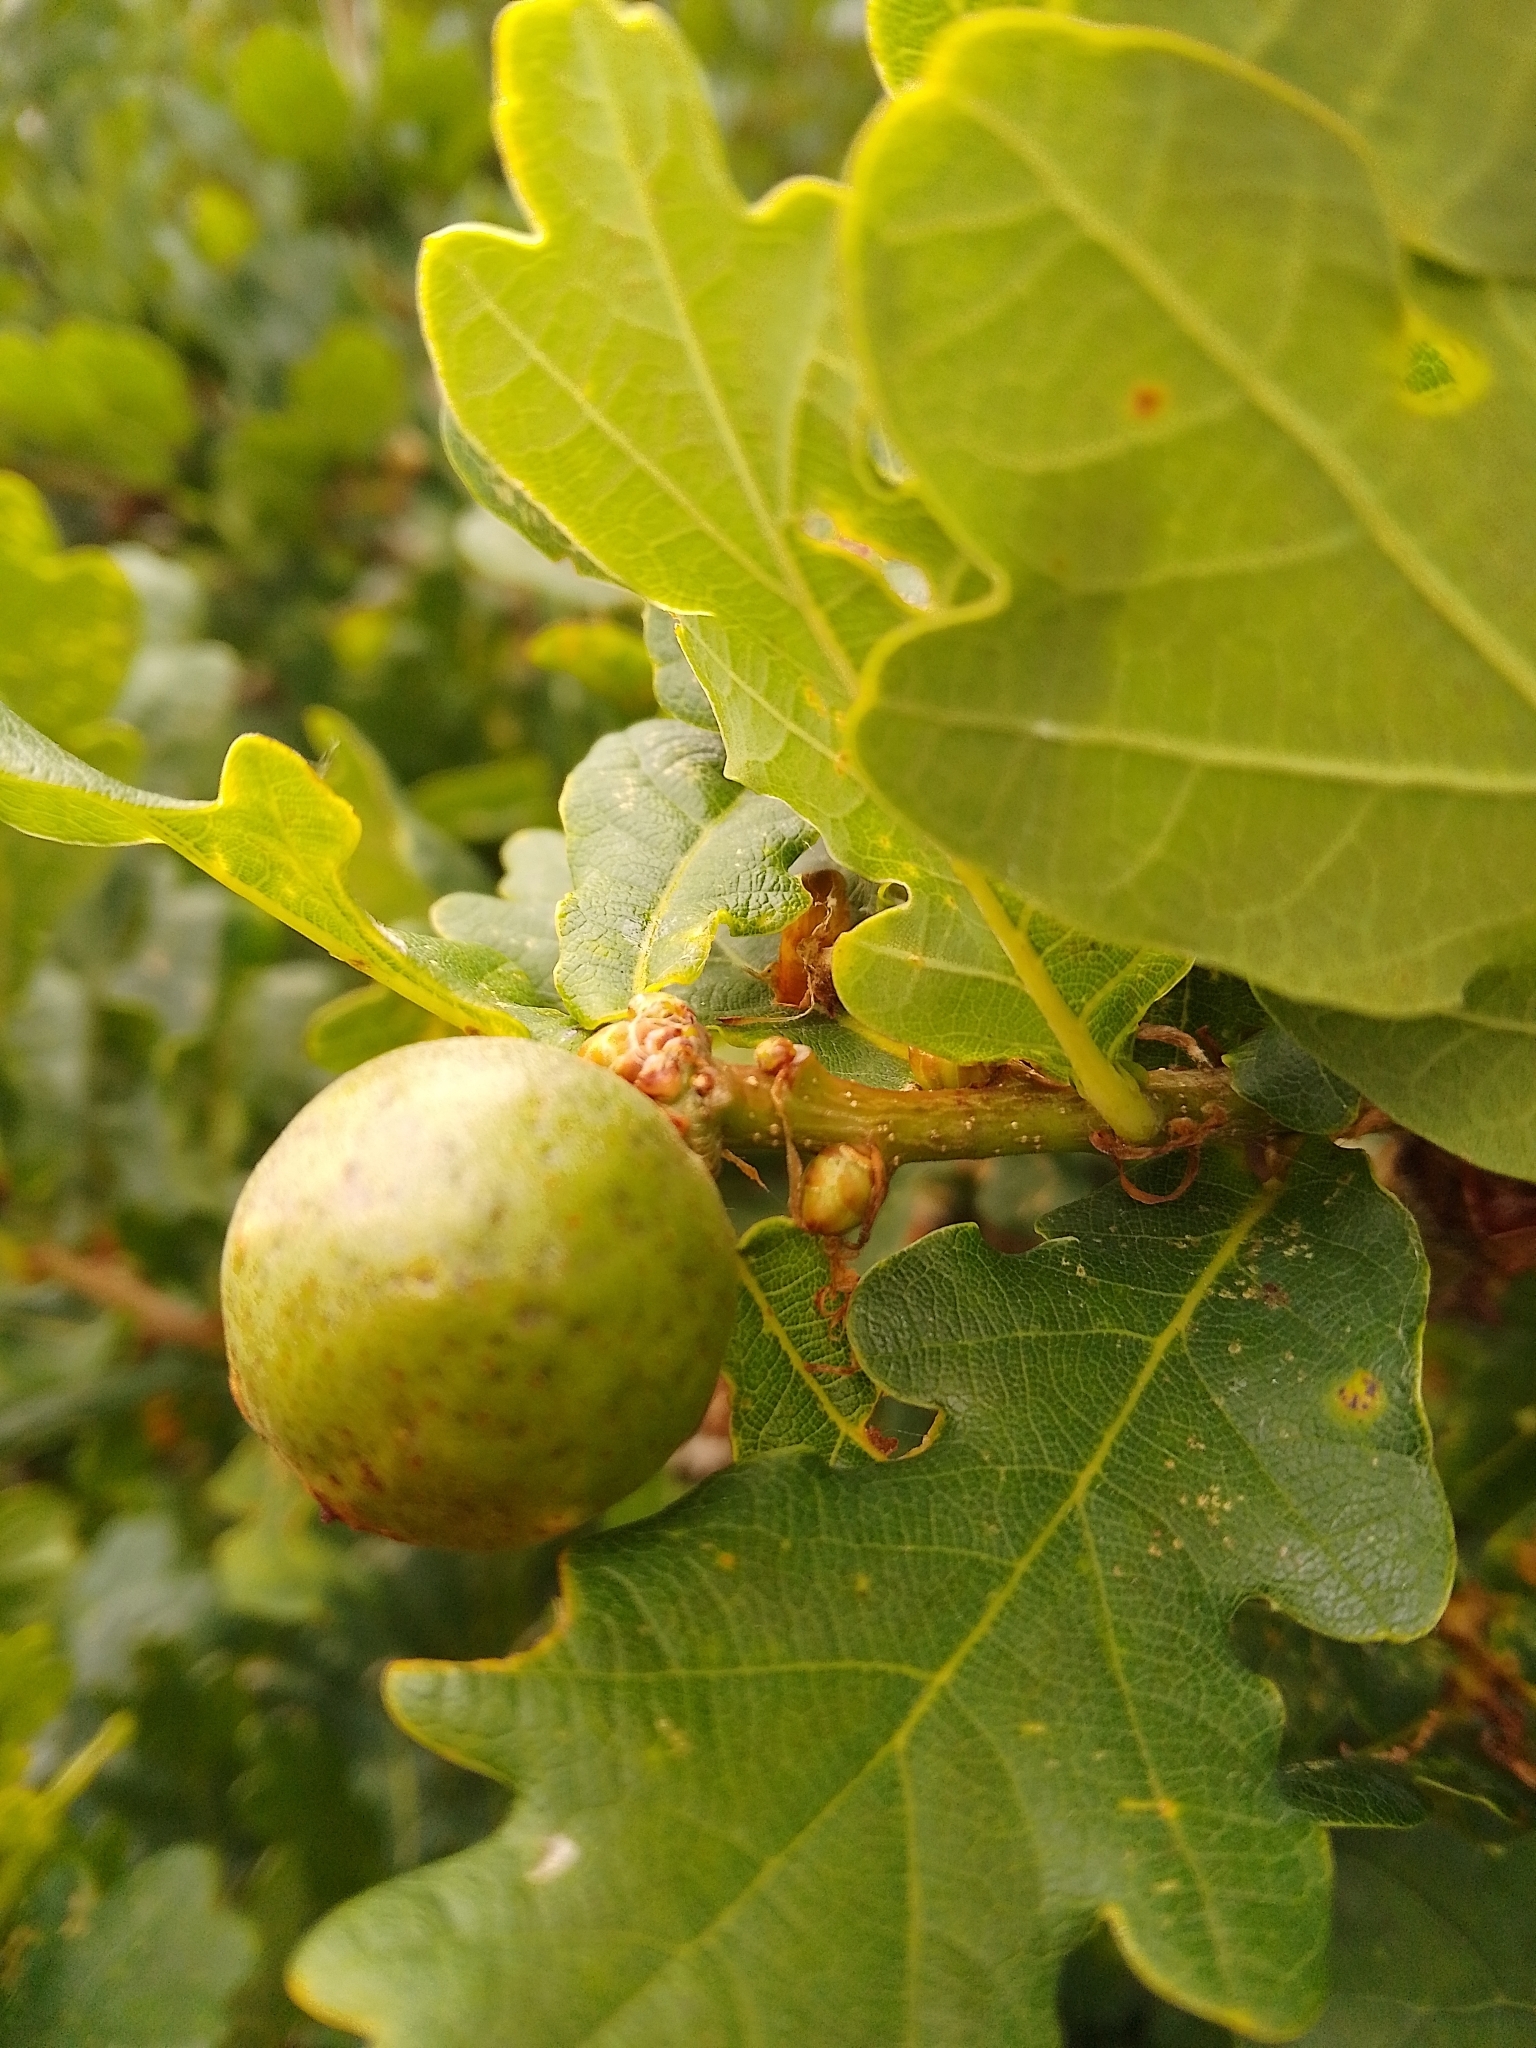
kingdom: Animalia
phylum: Arthropoda
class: Insecta
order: Hymenoptera
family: Cynipidae
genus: Andricus
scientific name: Andricus kollari
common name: Marble gall
